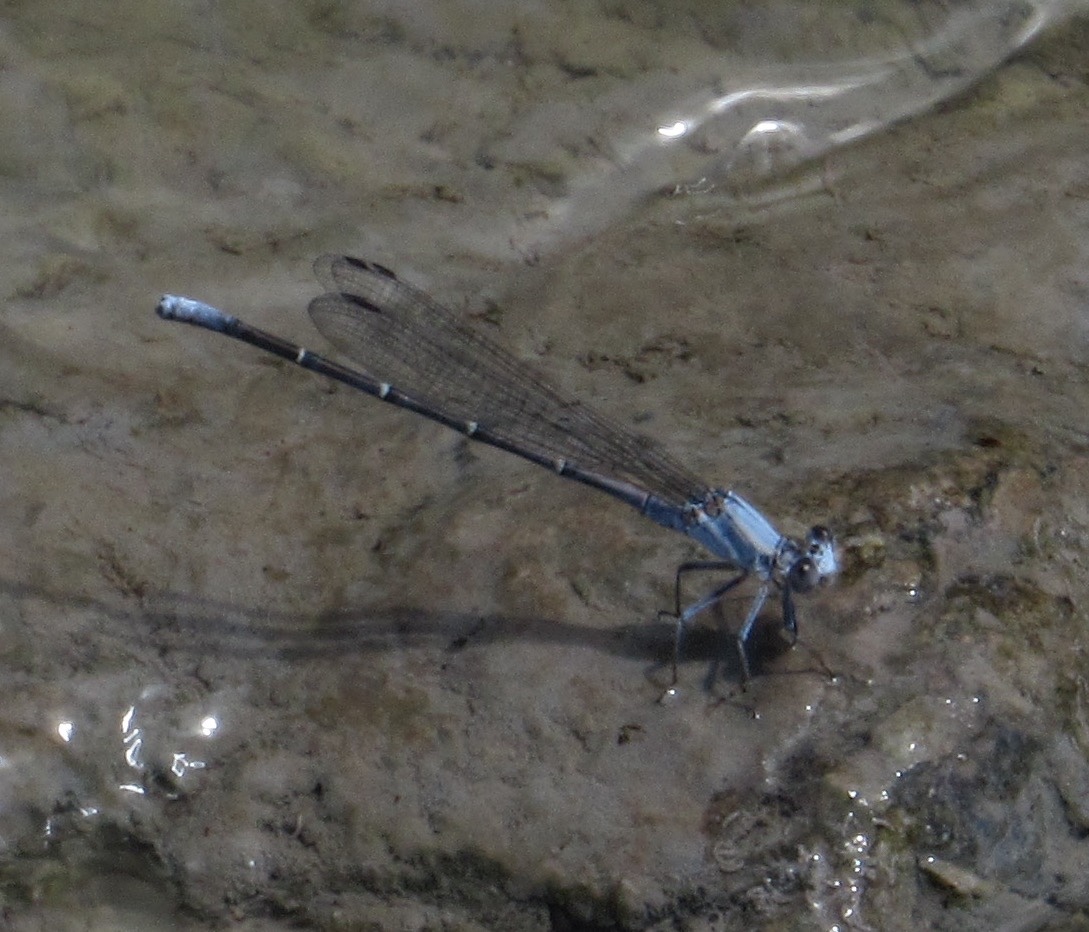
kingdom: Animalia
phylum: Arthropoda
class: Insecta
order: Odonata
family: Coenagrionidae
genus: Argia
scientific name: Argia moesta
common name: Powdered dancer
